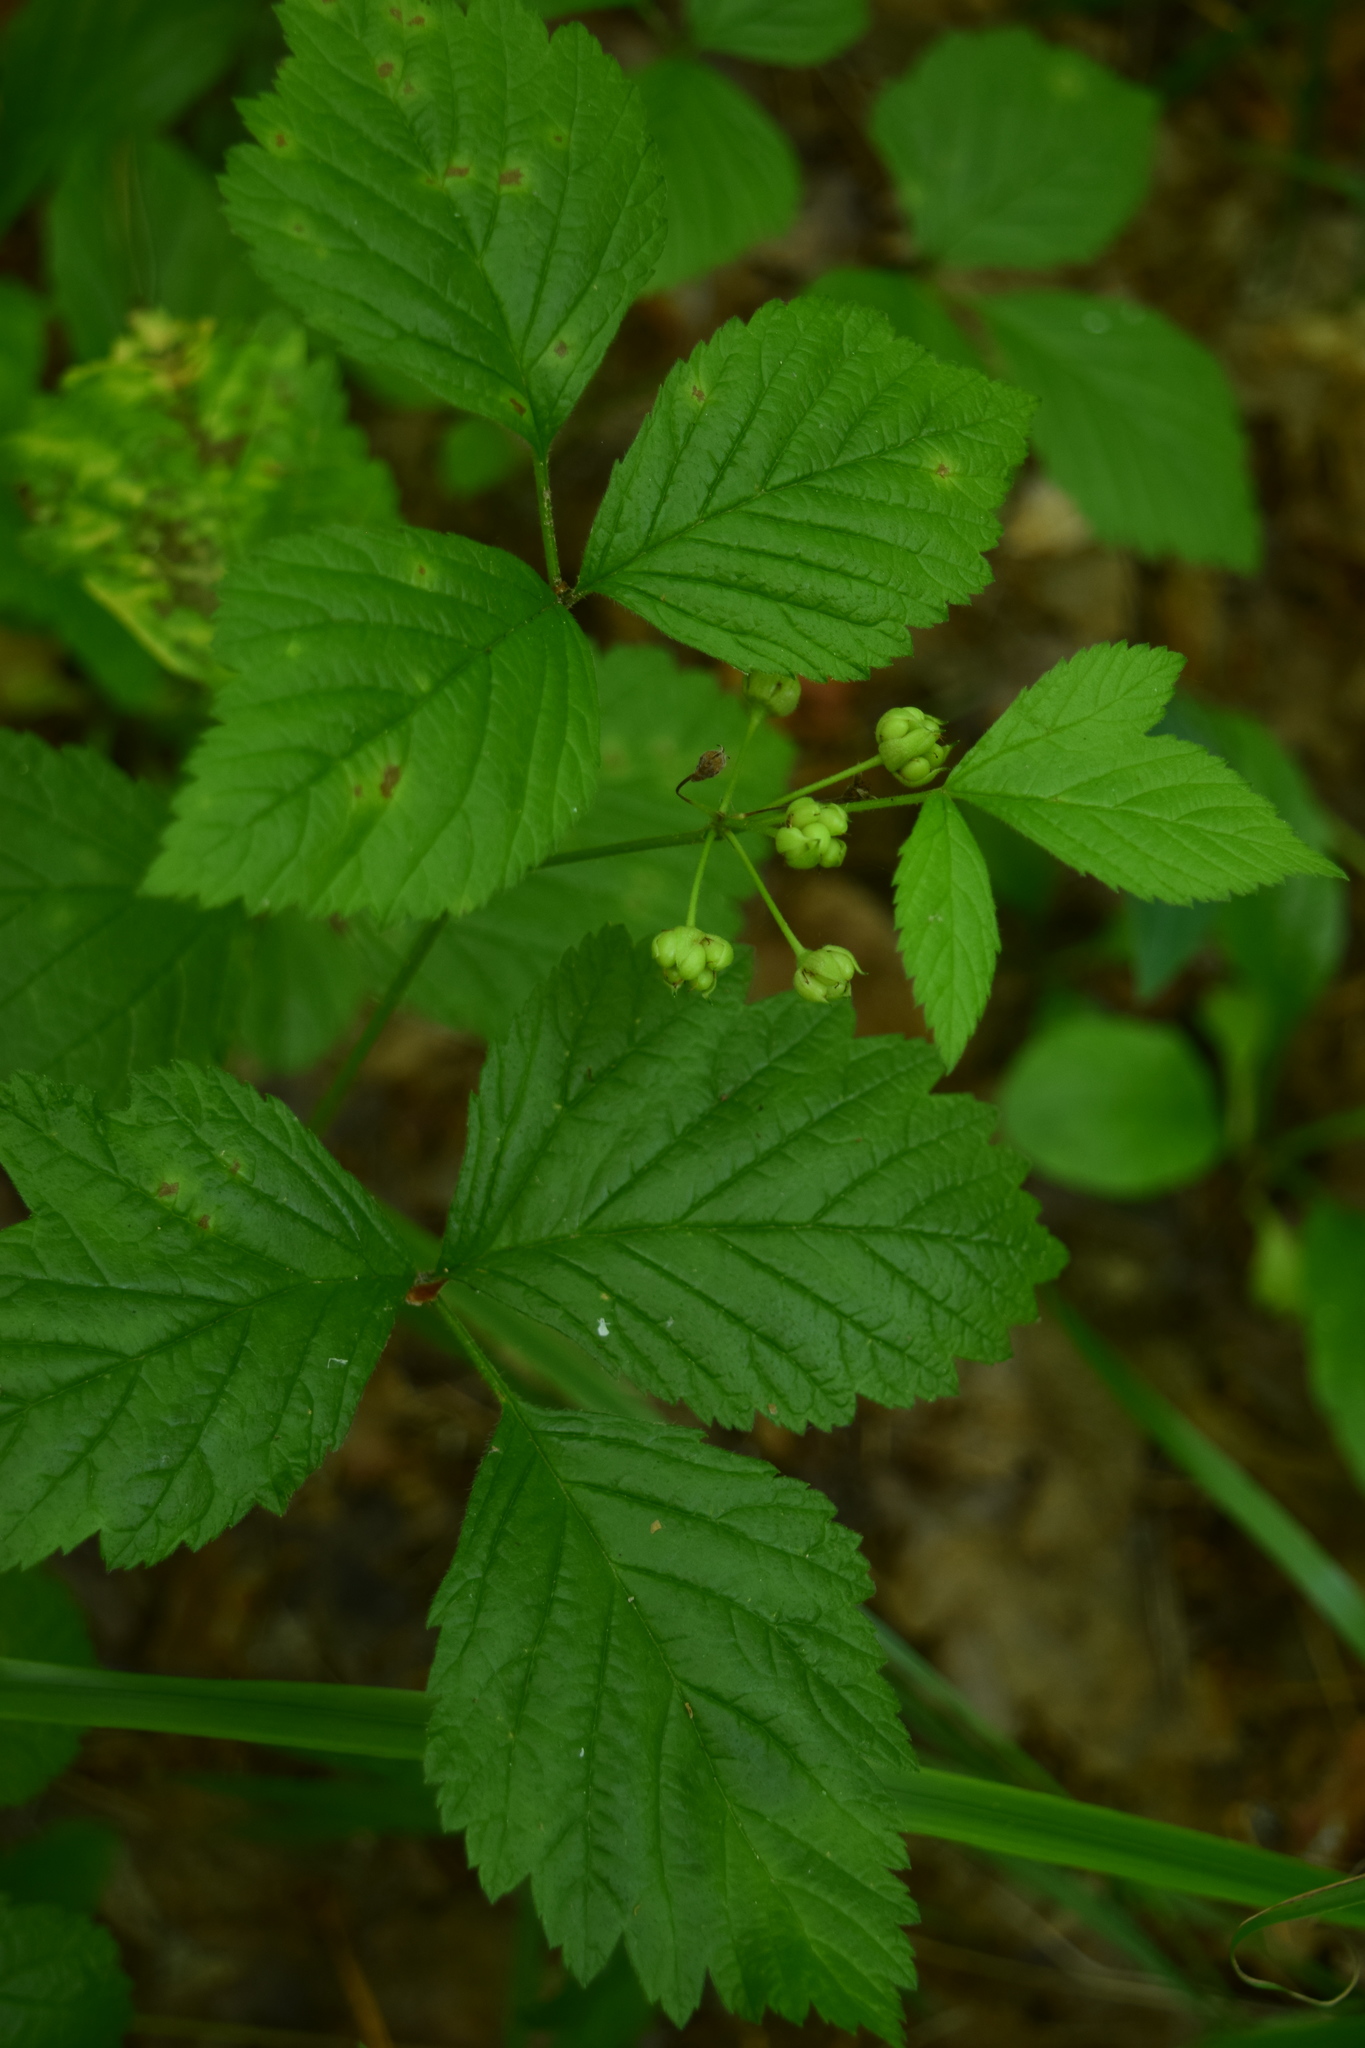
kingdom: Plantae
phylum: Tracheophyta
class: Magnoliopsida
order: Rosales
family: Rosaceae
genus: Rubus
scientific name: Rubus saxatilis
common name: Stone bramble
